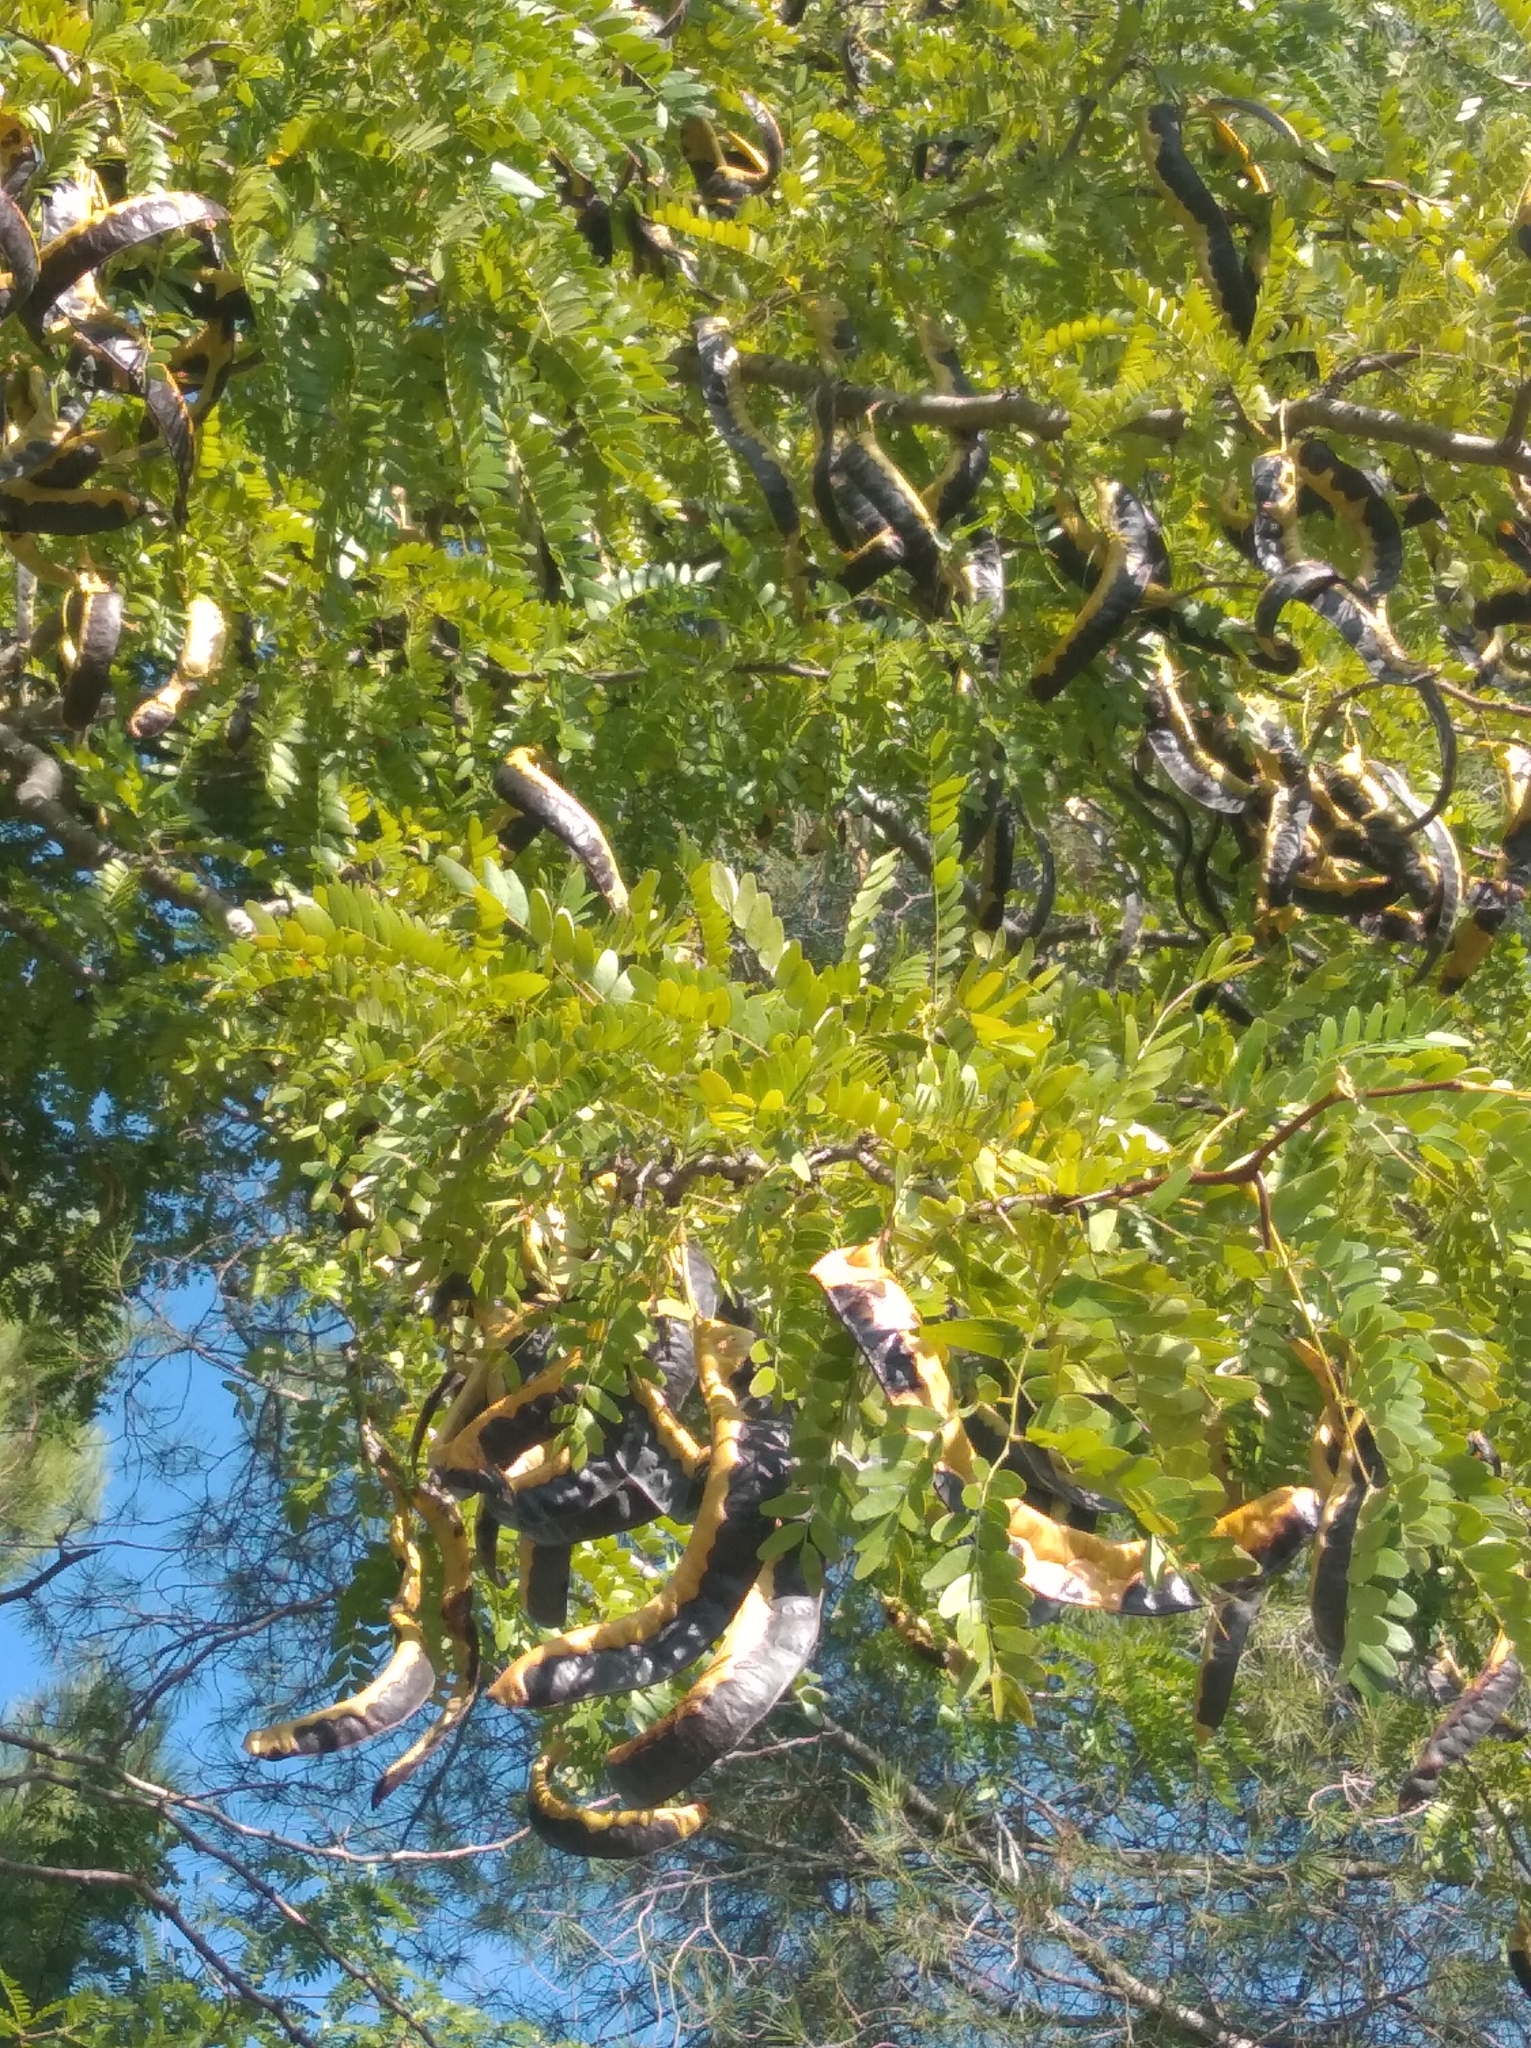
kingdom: Plantae
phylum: Tracheophyta
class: Magnoliopsida
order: Fabales
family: Fabaceae
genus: Gleditsia
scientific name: Gleditsia triacanthos
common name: Common honeylocust
